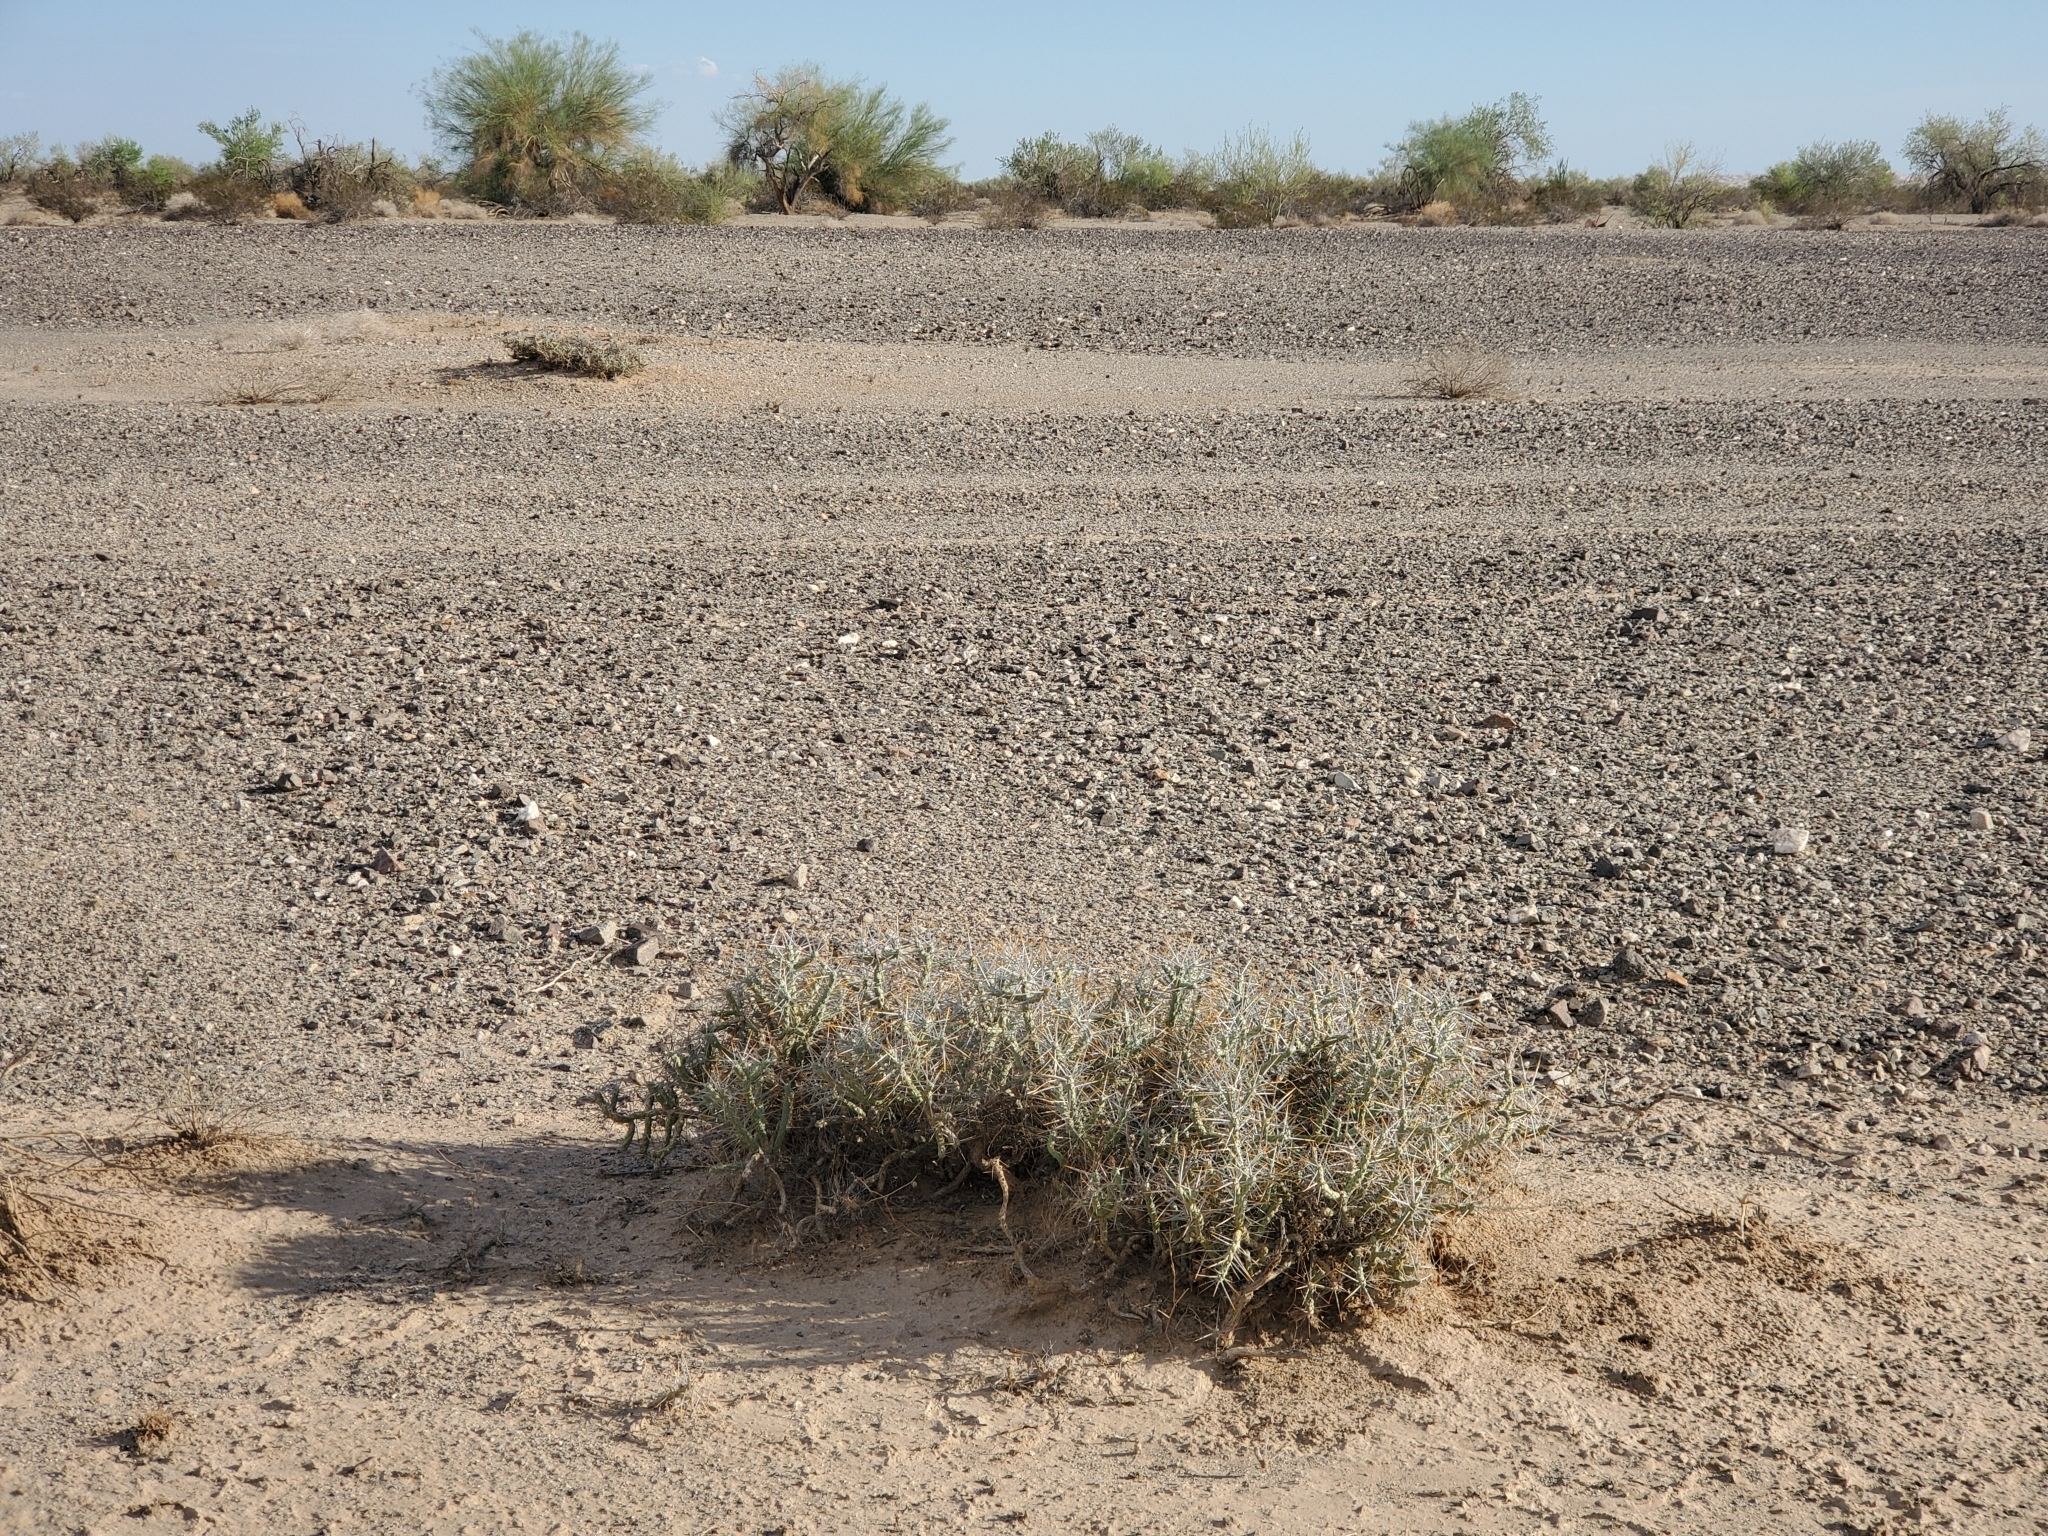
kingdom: Plantae
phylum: Tracheophyta
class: Magnoliopsida
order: Caryophyllales
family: Cactaceae
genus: Cylindropuntia
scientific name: Cylindropuntia ramosissima
